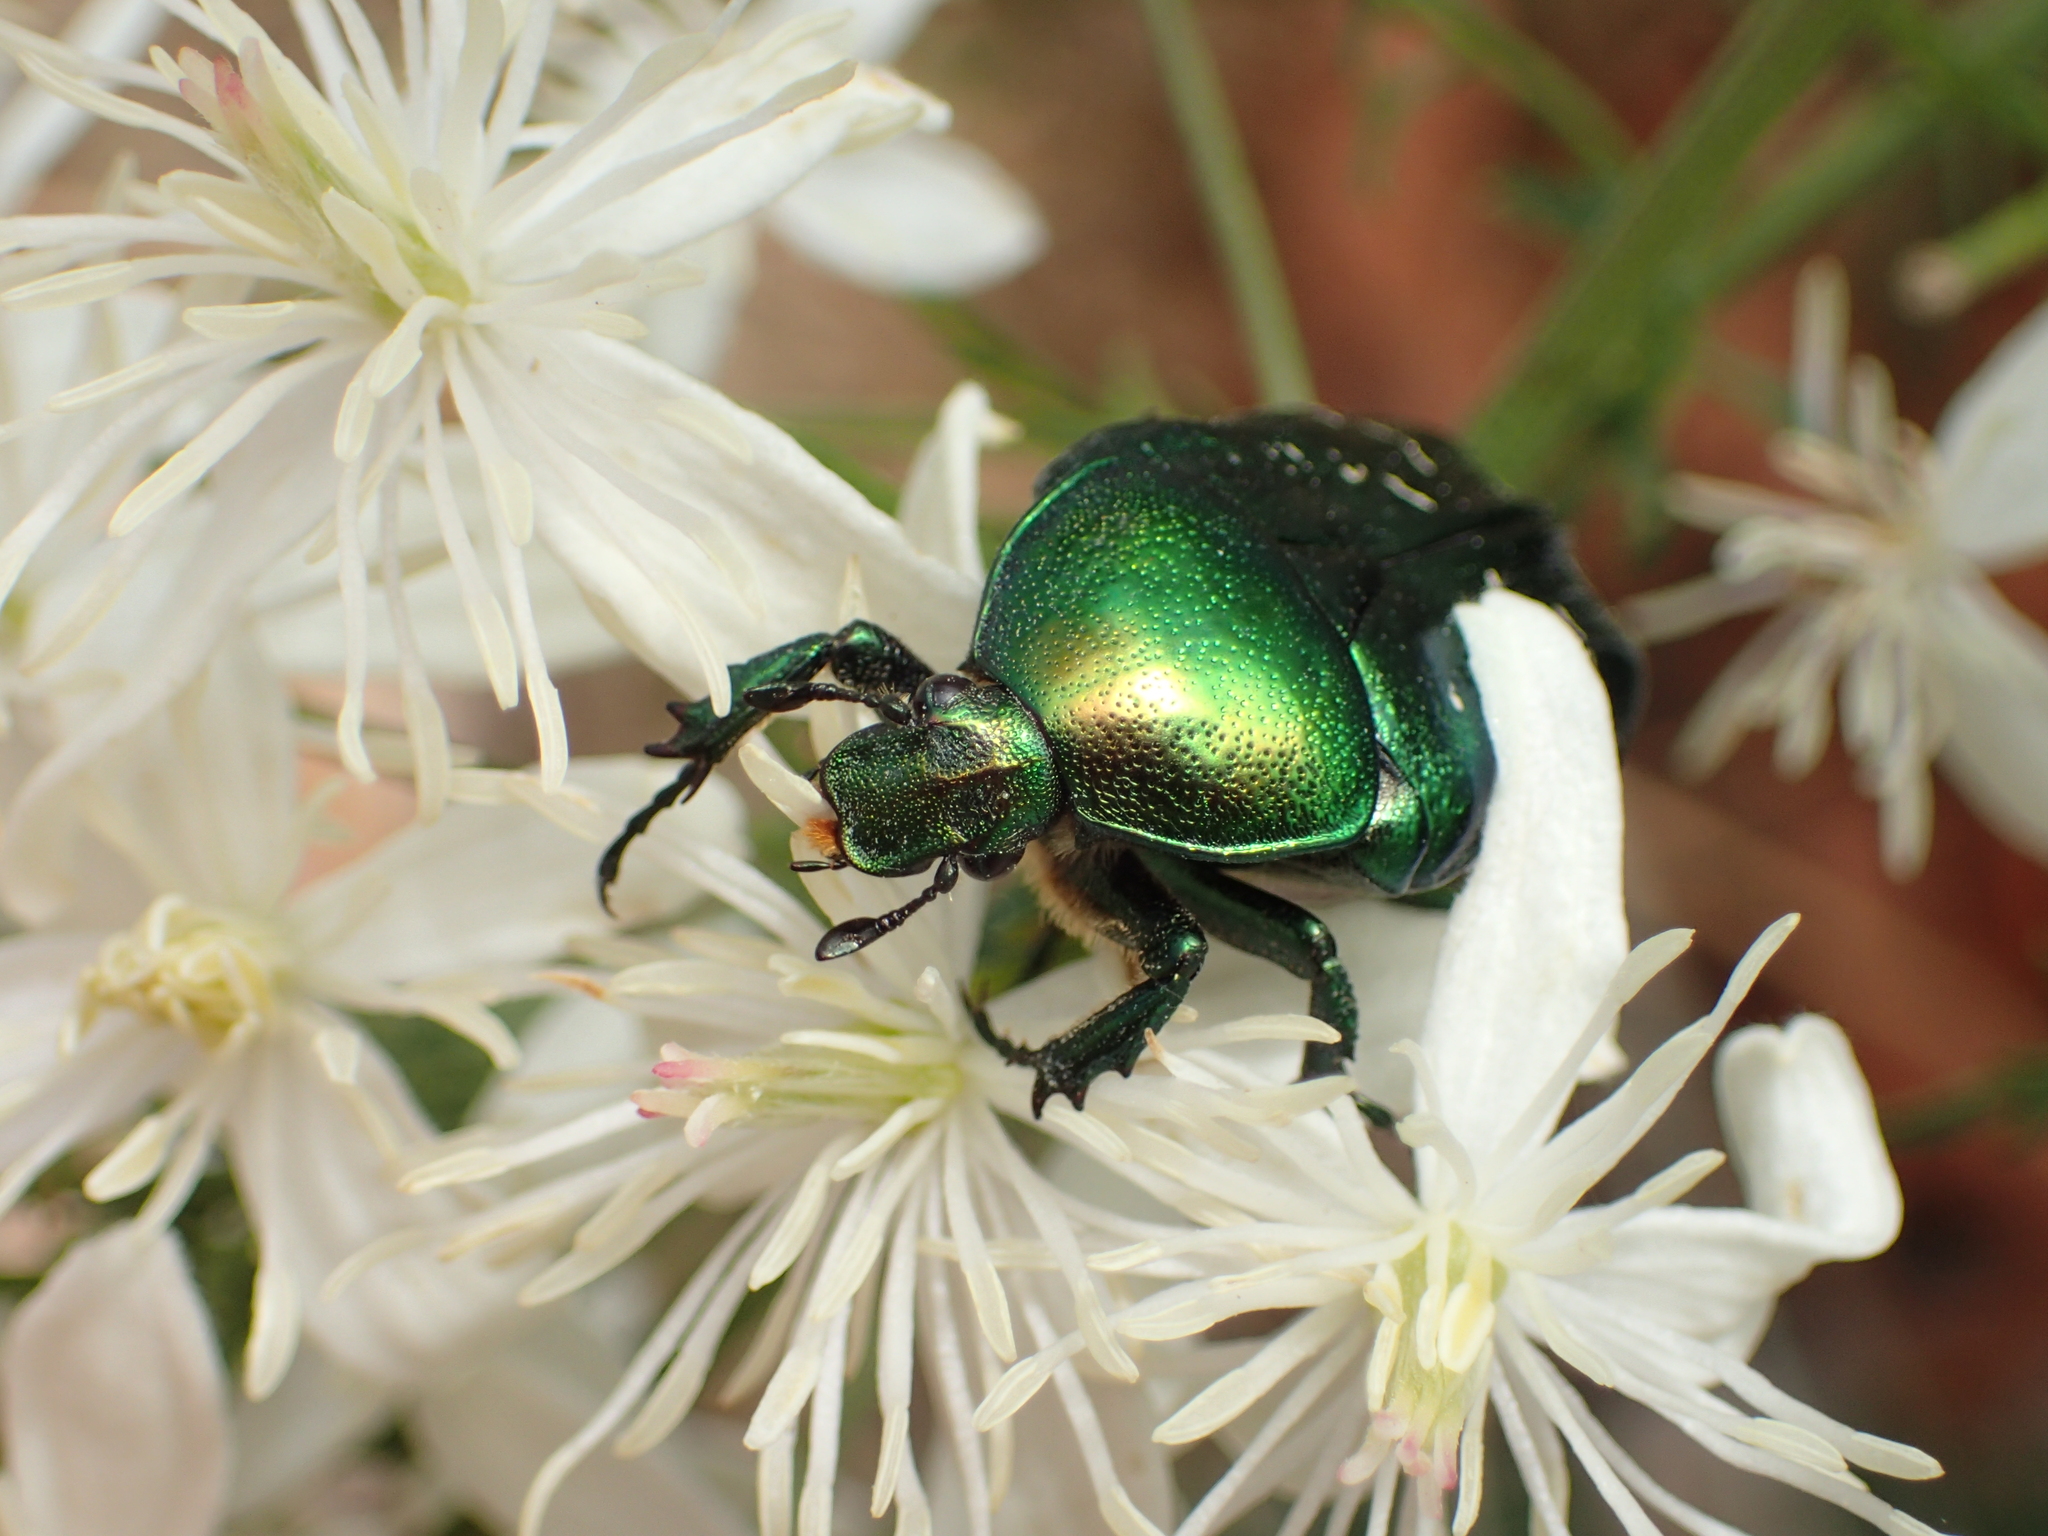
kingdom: Animalia
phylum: Arthropoda
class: Insecta
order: Coleoptera
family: Scarabaeidae
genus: Cetonia
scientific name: Cetonia aurata
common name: Rose chafer
